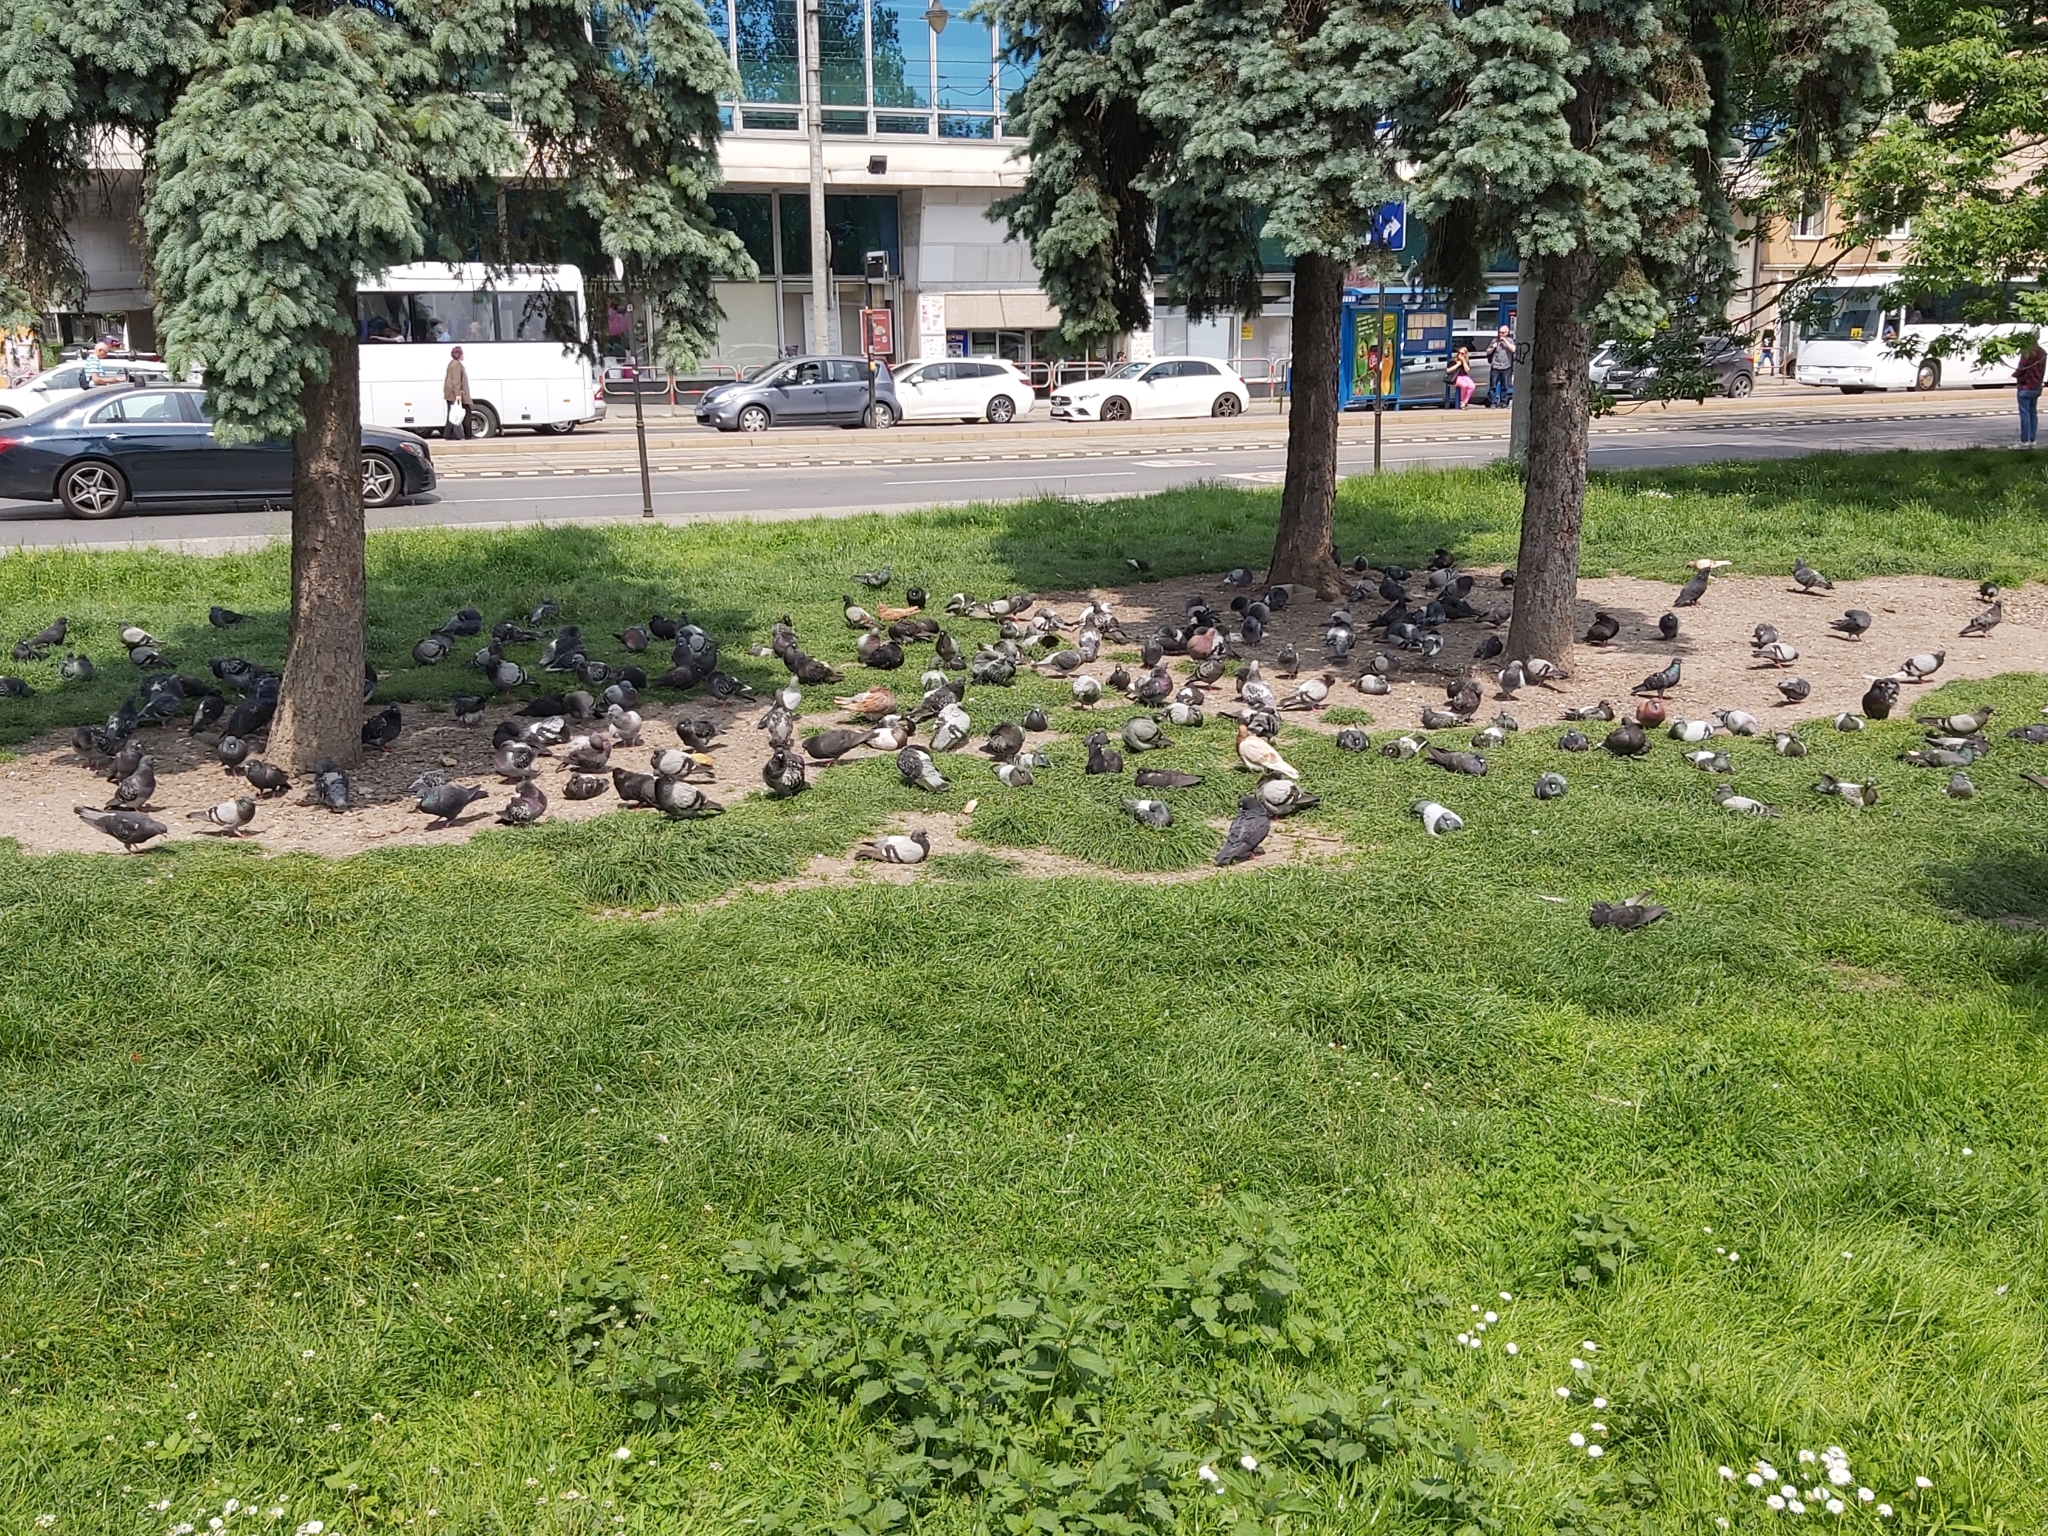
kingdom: Animalia
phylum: Chordata
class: Aves
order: Columbiformes
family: Columbidae
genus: Columba
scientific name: Columba livia
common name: Rock pigeon
